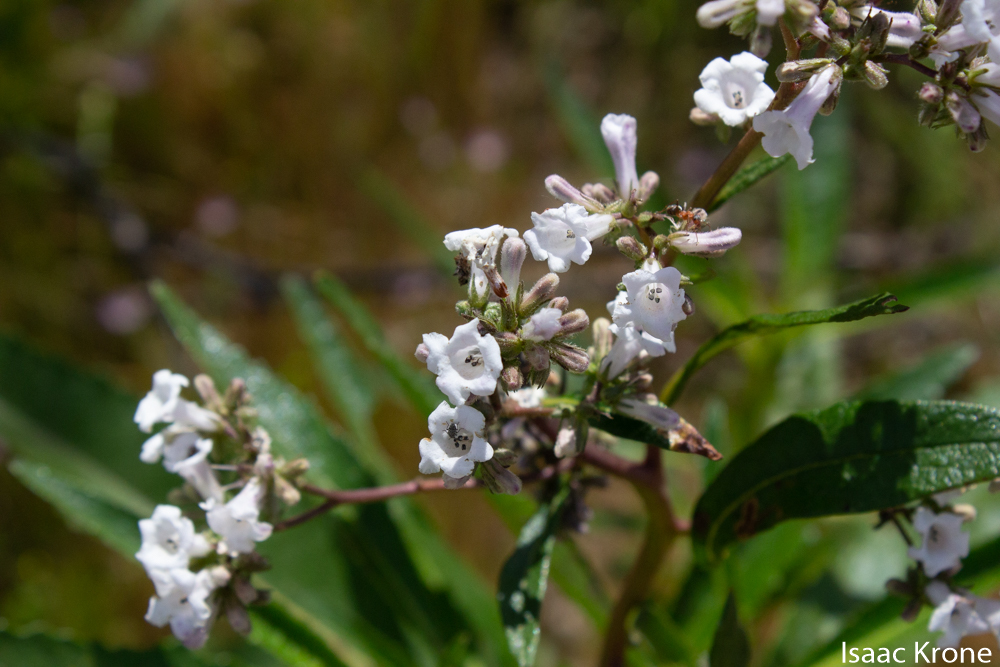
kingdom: Plantae
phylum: Tracheophyta
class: Magnoliopsida
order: Boraginales
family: Namaceae
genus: Eriodictyon
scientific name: Eriodictyon californicum
